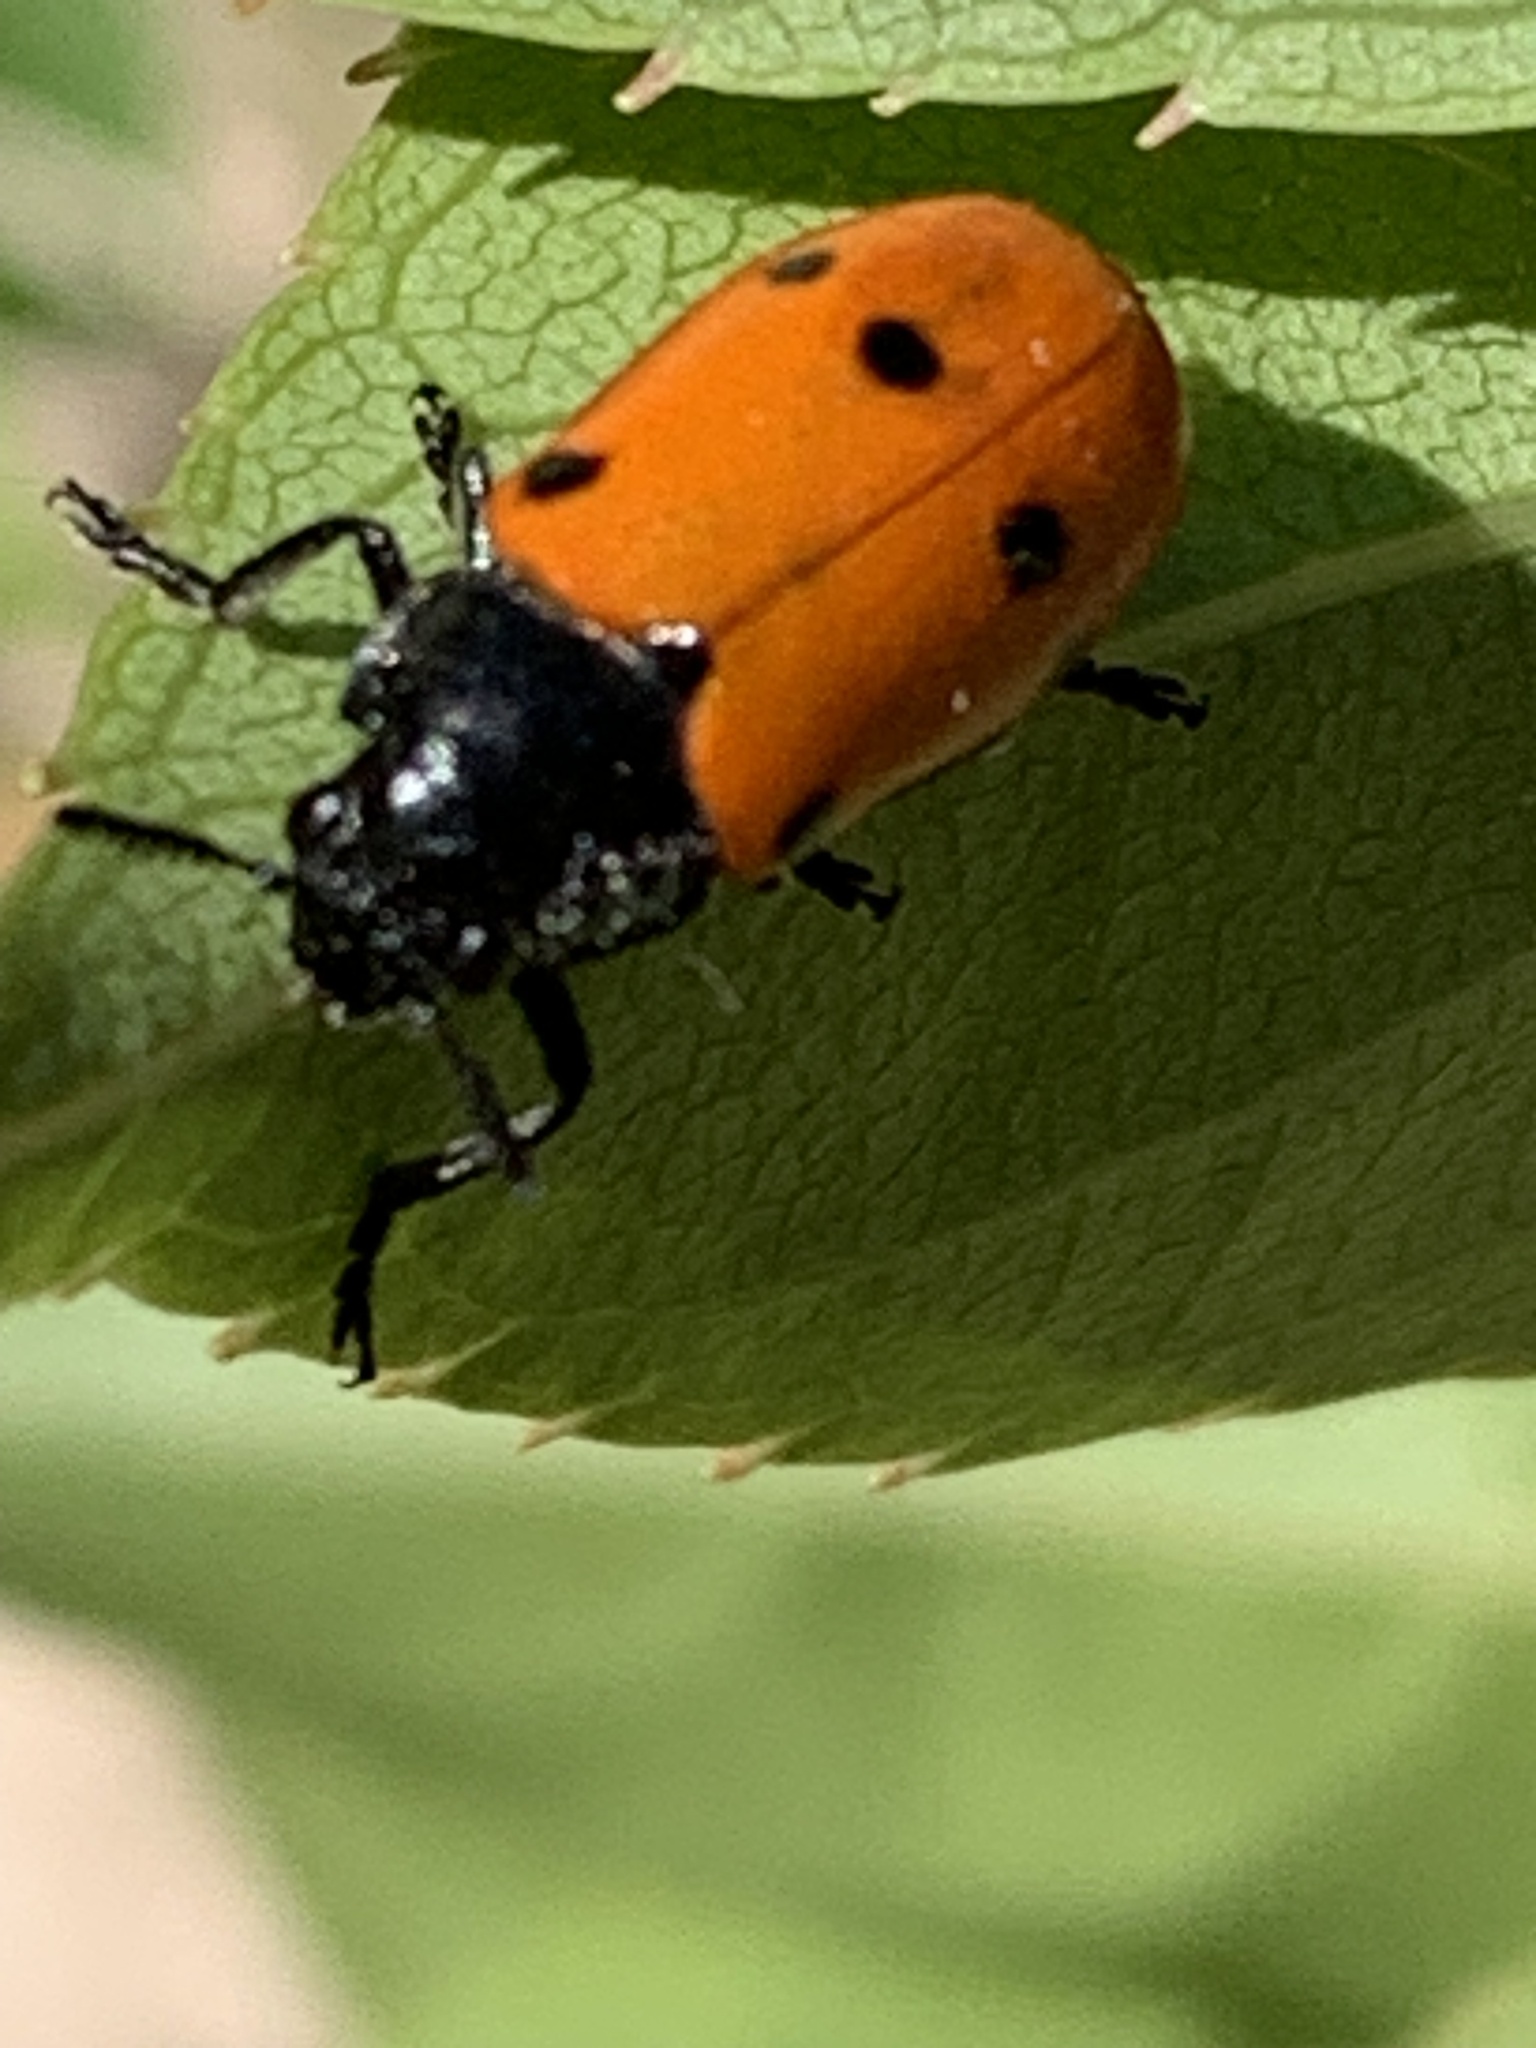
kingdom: Animalia
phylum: Arthropoda
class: Insecta
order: Coleoptera
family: Chrysomelidae
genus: Lachnaia
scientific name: Lachnaia paradoxa
